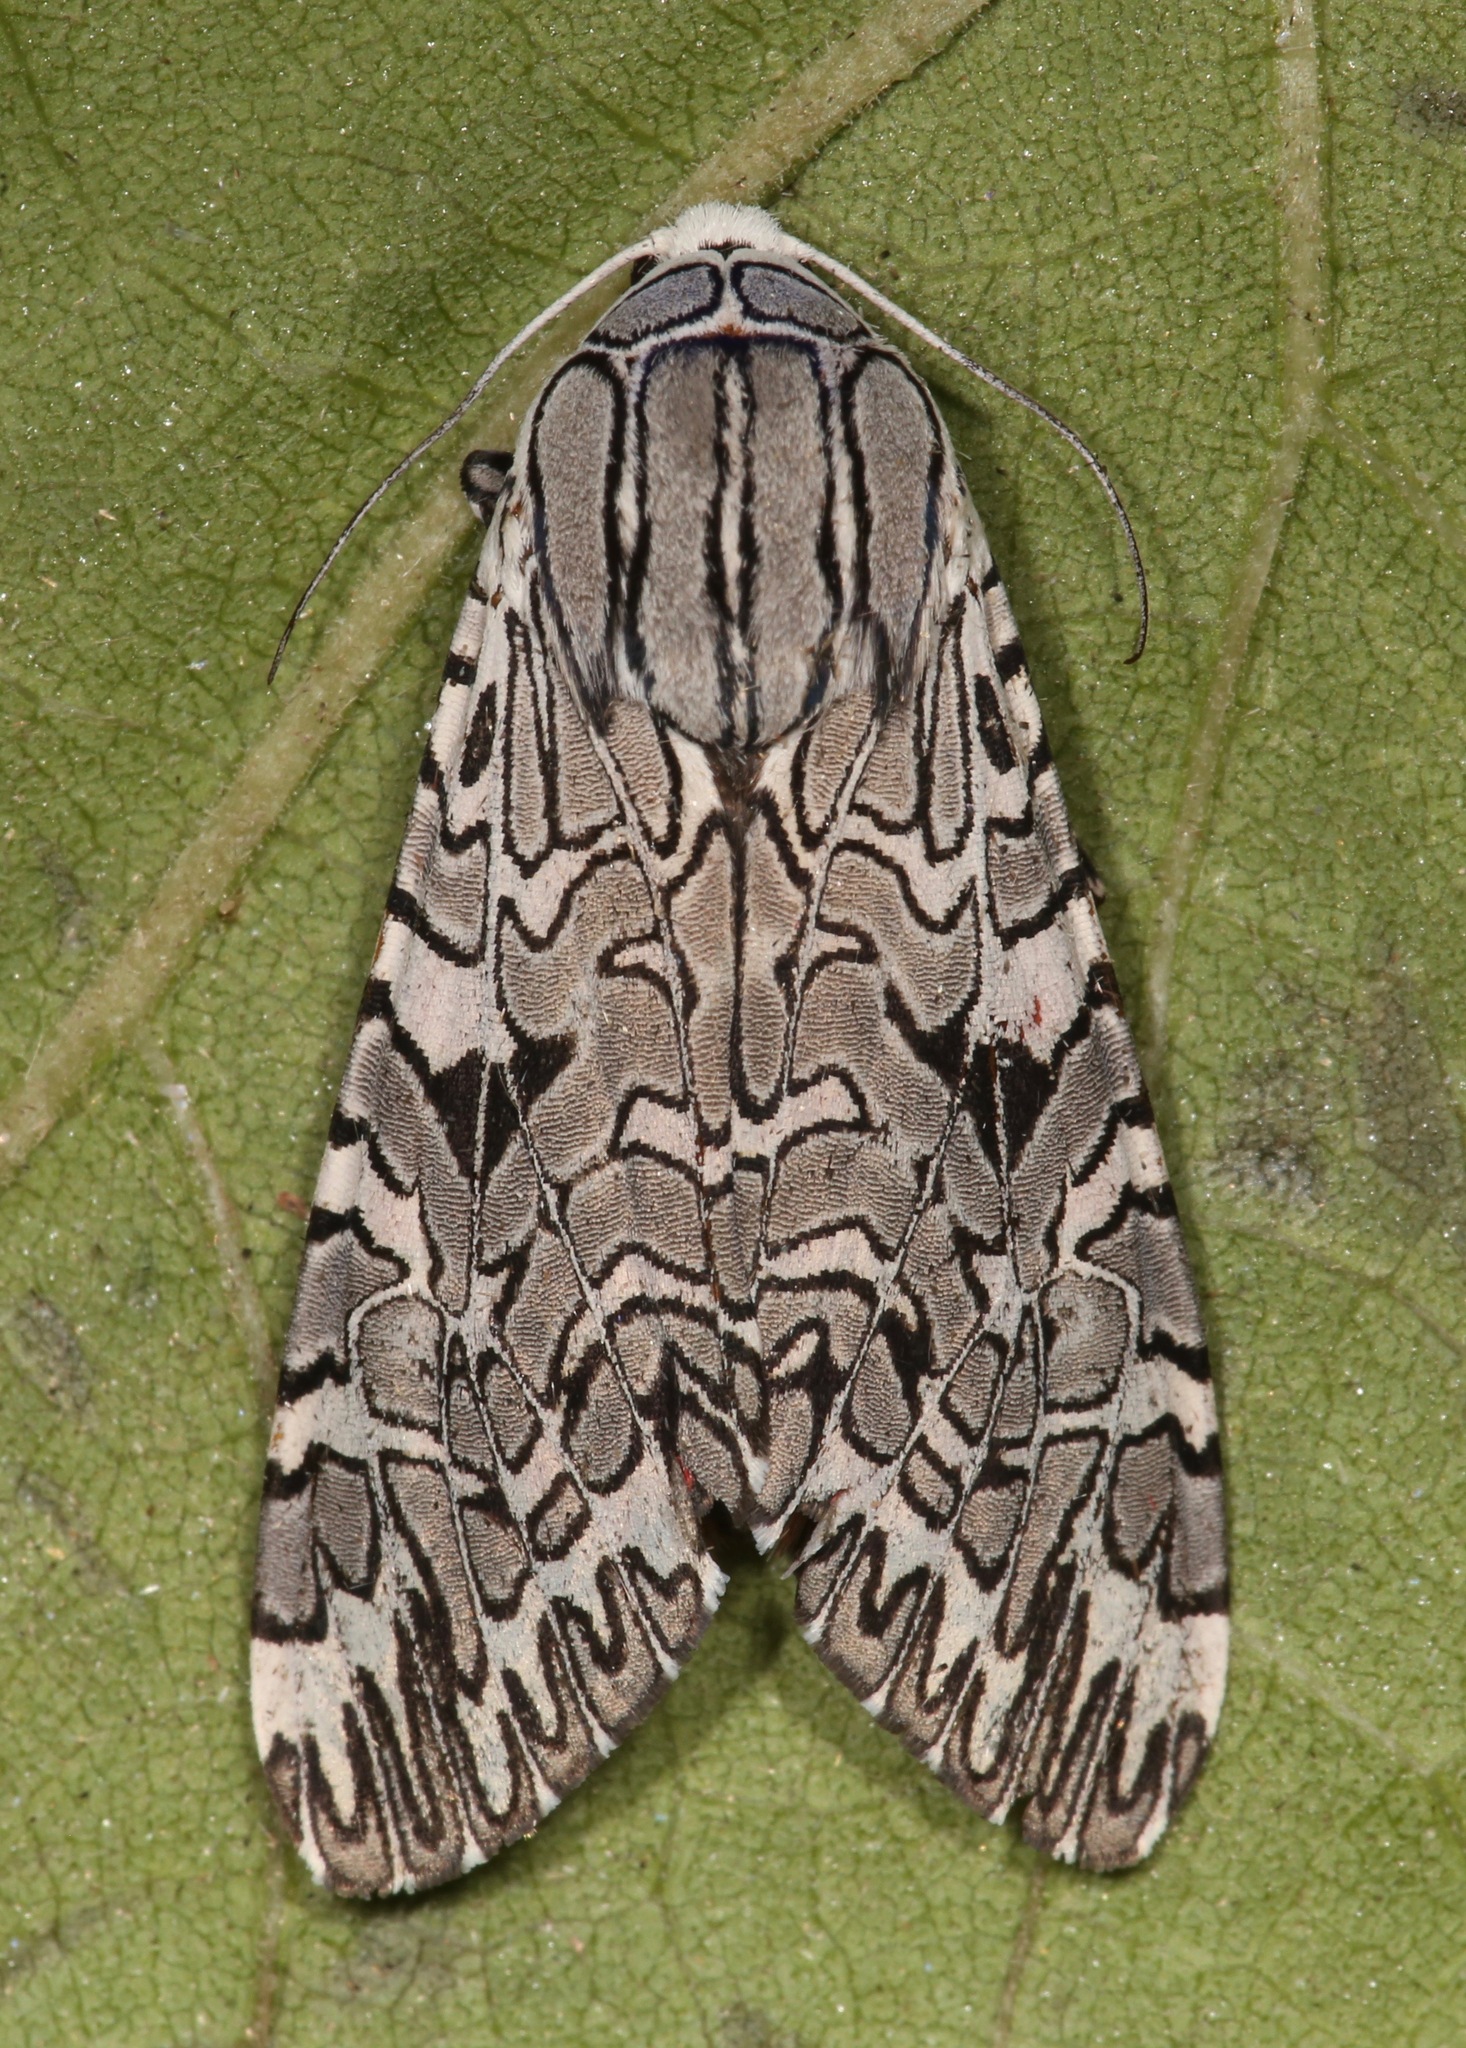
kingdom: Animalia
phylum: Arthropoda
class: Insecta
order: Lepidoptera
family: Erebidae
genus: Arachnis
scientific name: Arachnis picta
